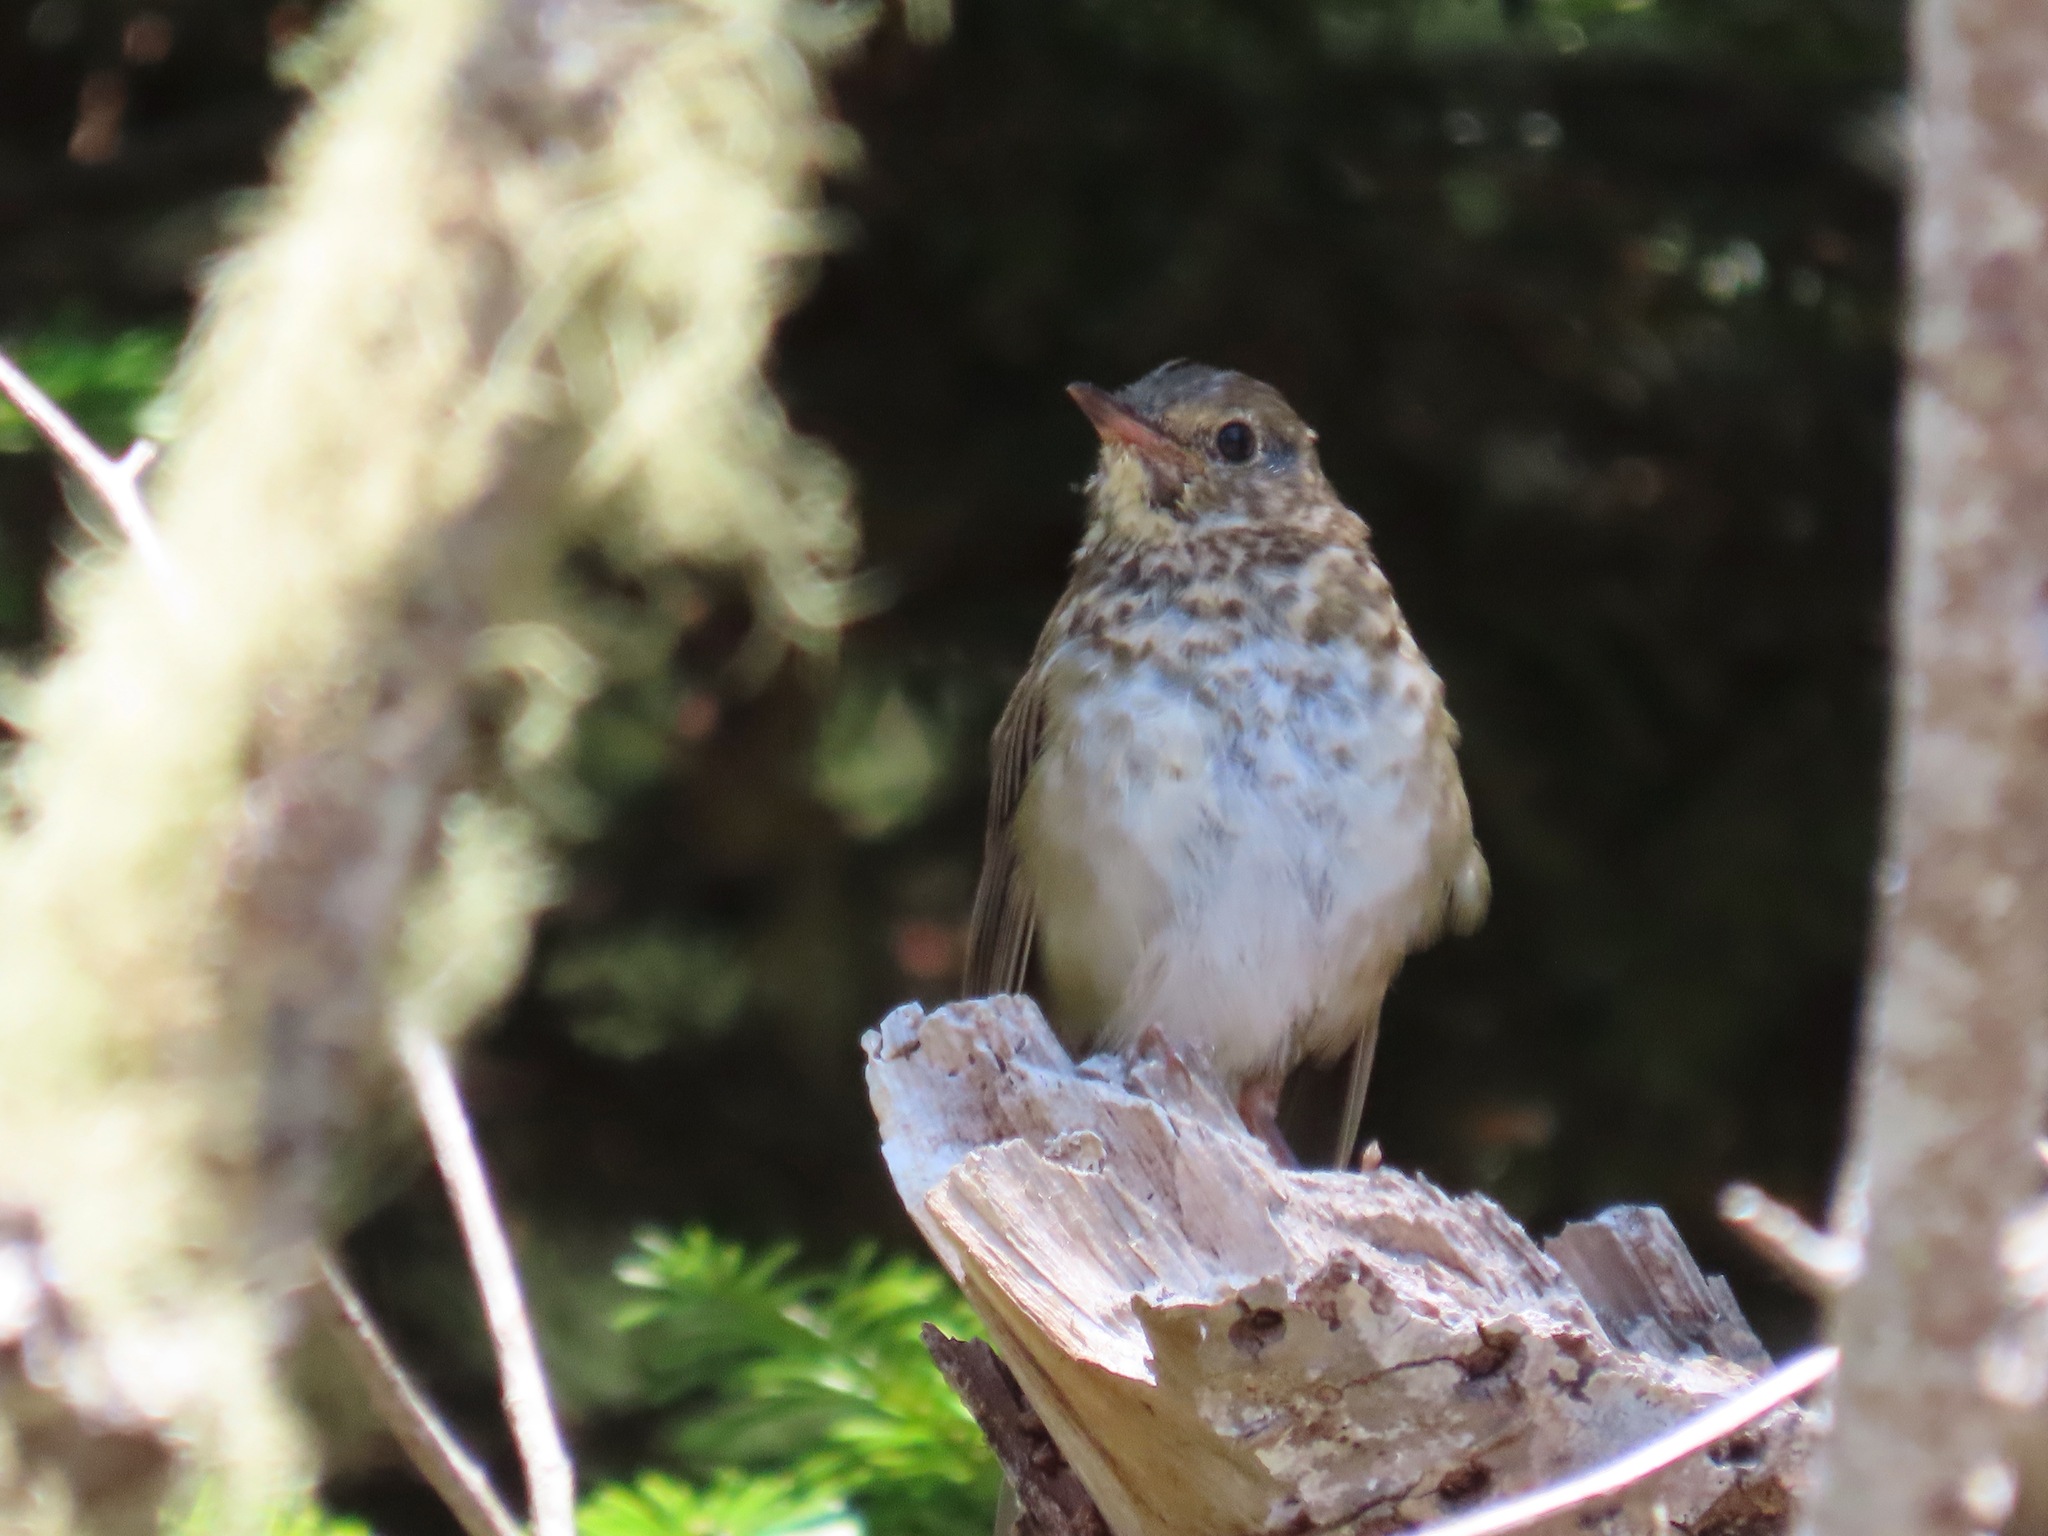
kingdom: Animalia
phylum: Chordata
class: Aves
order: Passeriformes
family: Turdidae
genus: Catharus
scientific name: Catharus ustulatus
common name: Swainson's thrush
